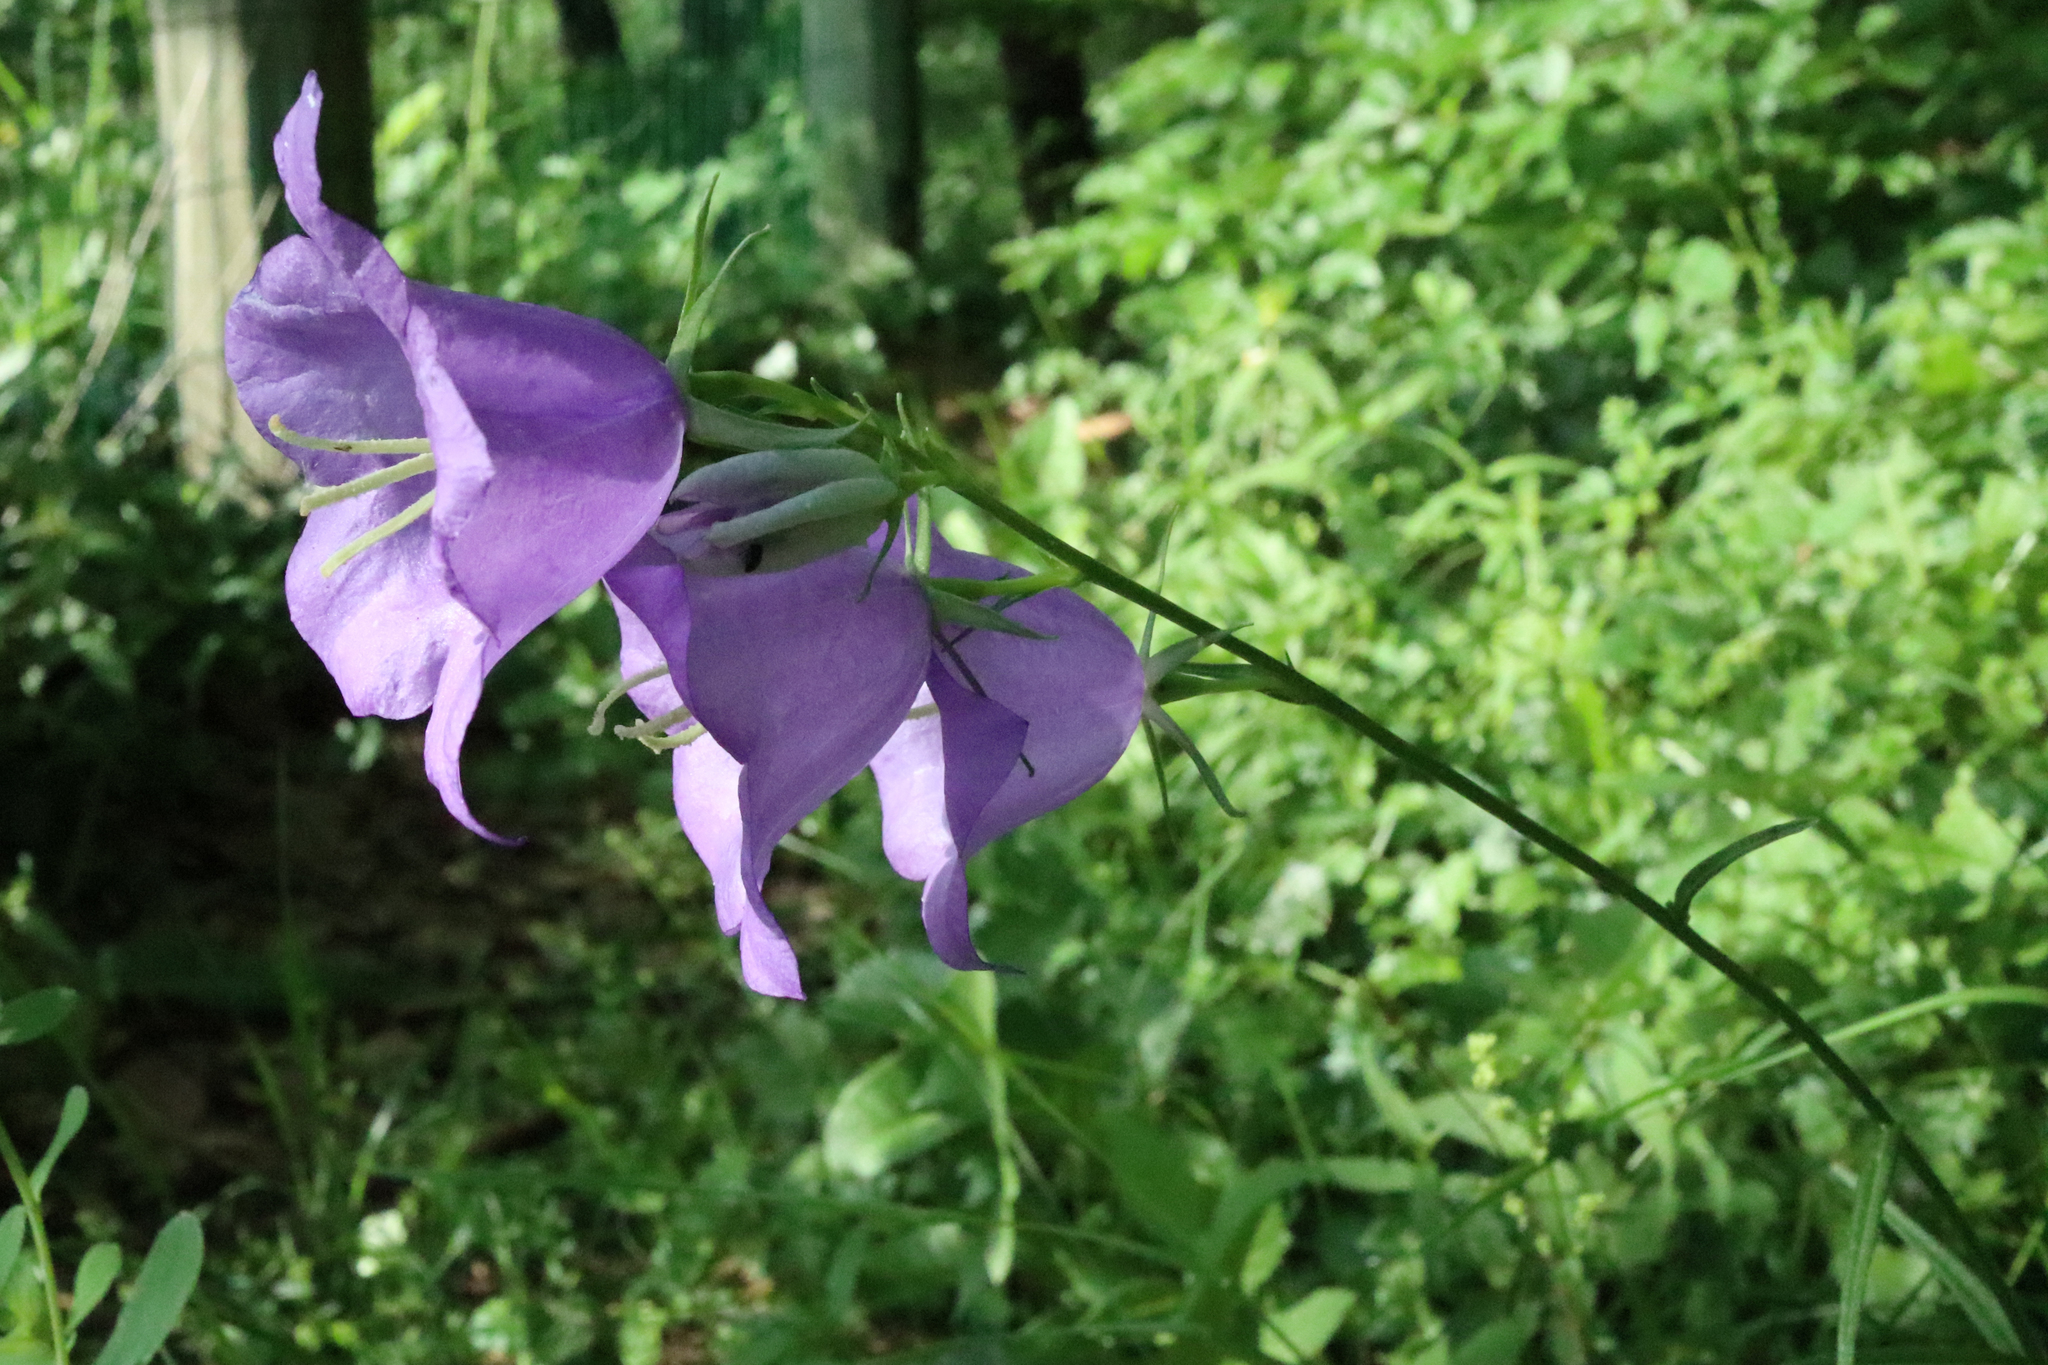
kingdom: Plantae
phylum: Tracheophyta
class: Magnoliopsida
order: Asterales
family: Campanulaceae
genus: Campanula
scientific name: Campanula persicifolia
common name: Peach-leaved bellflower
